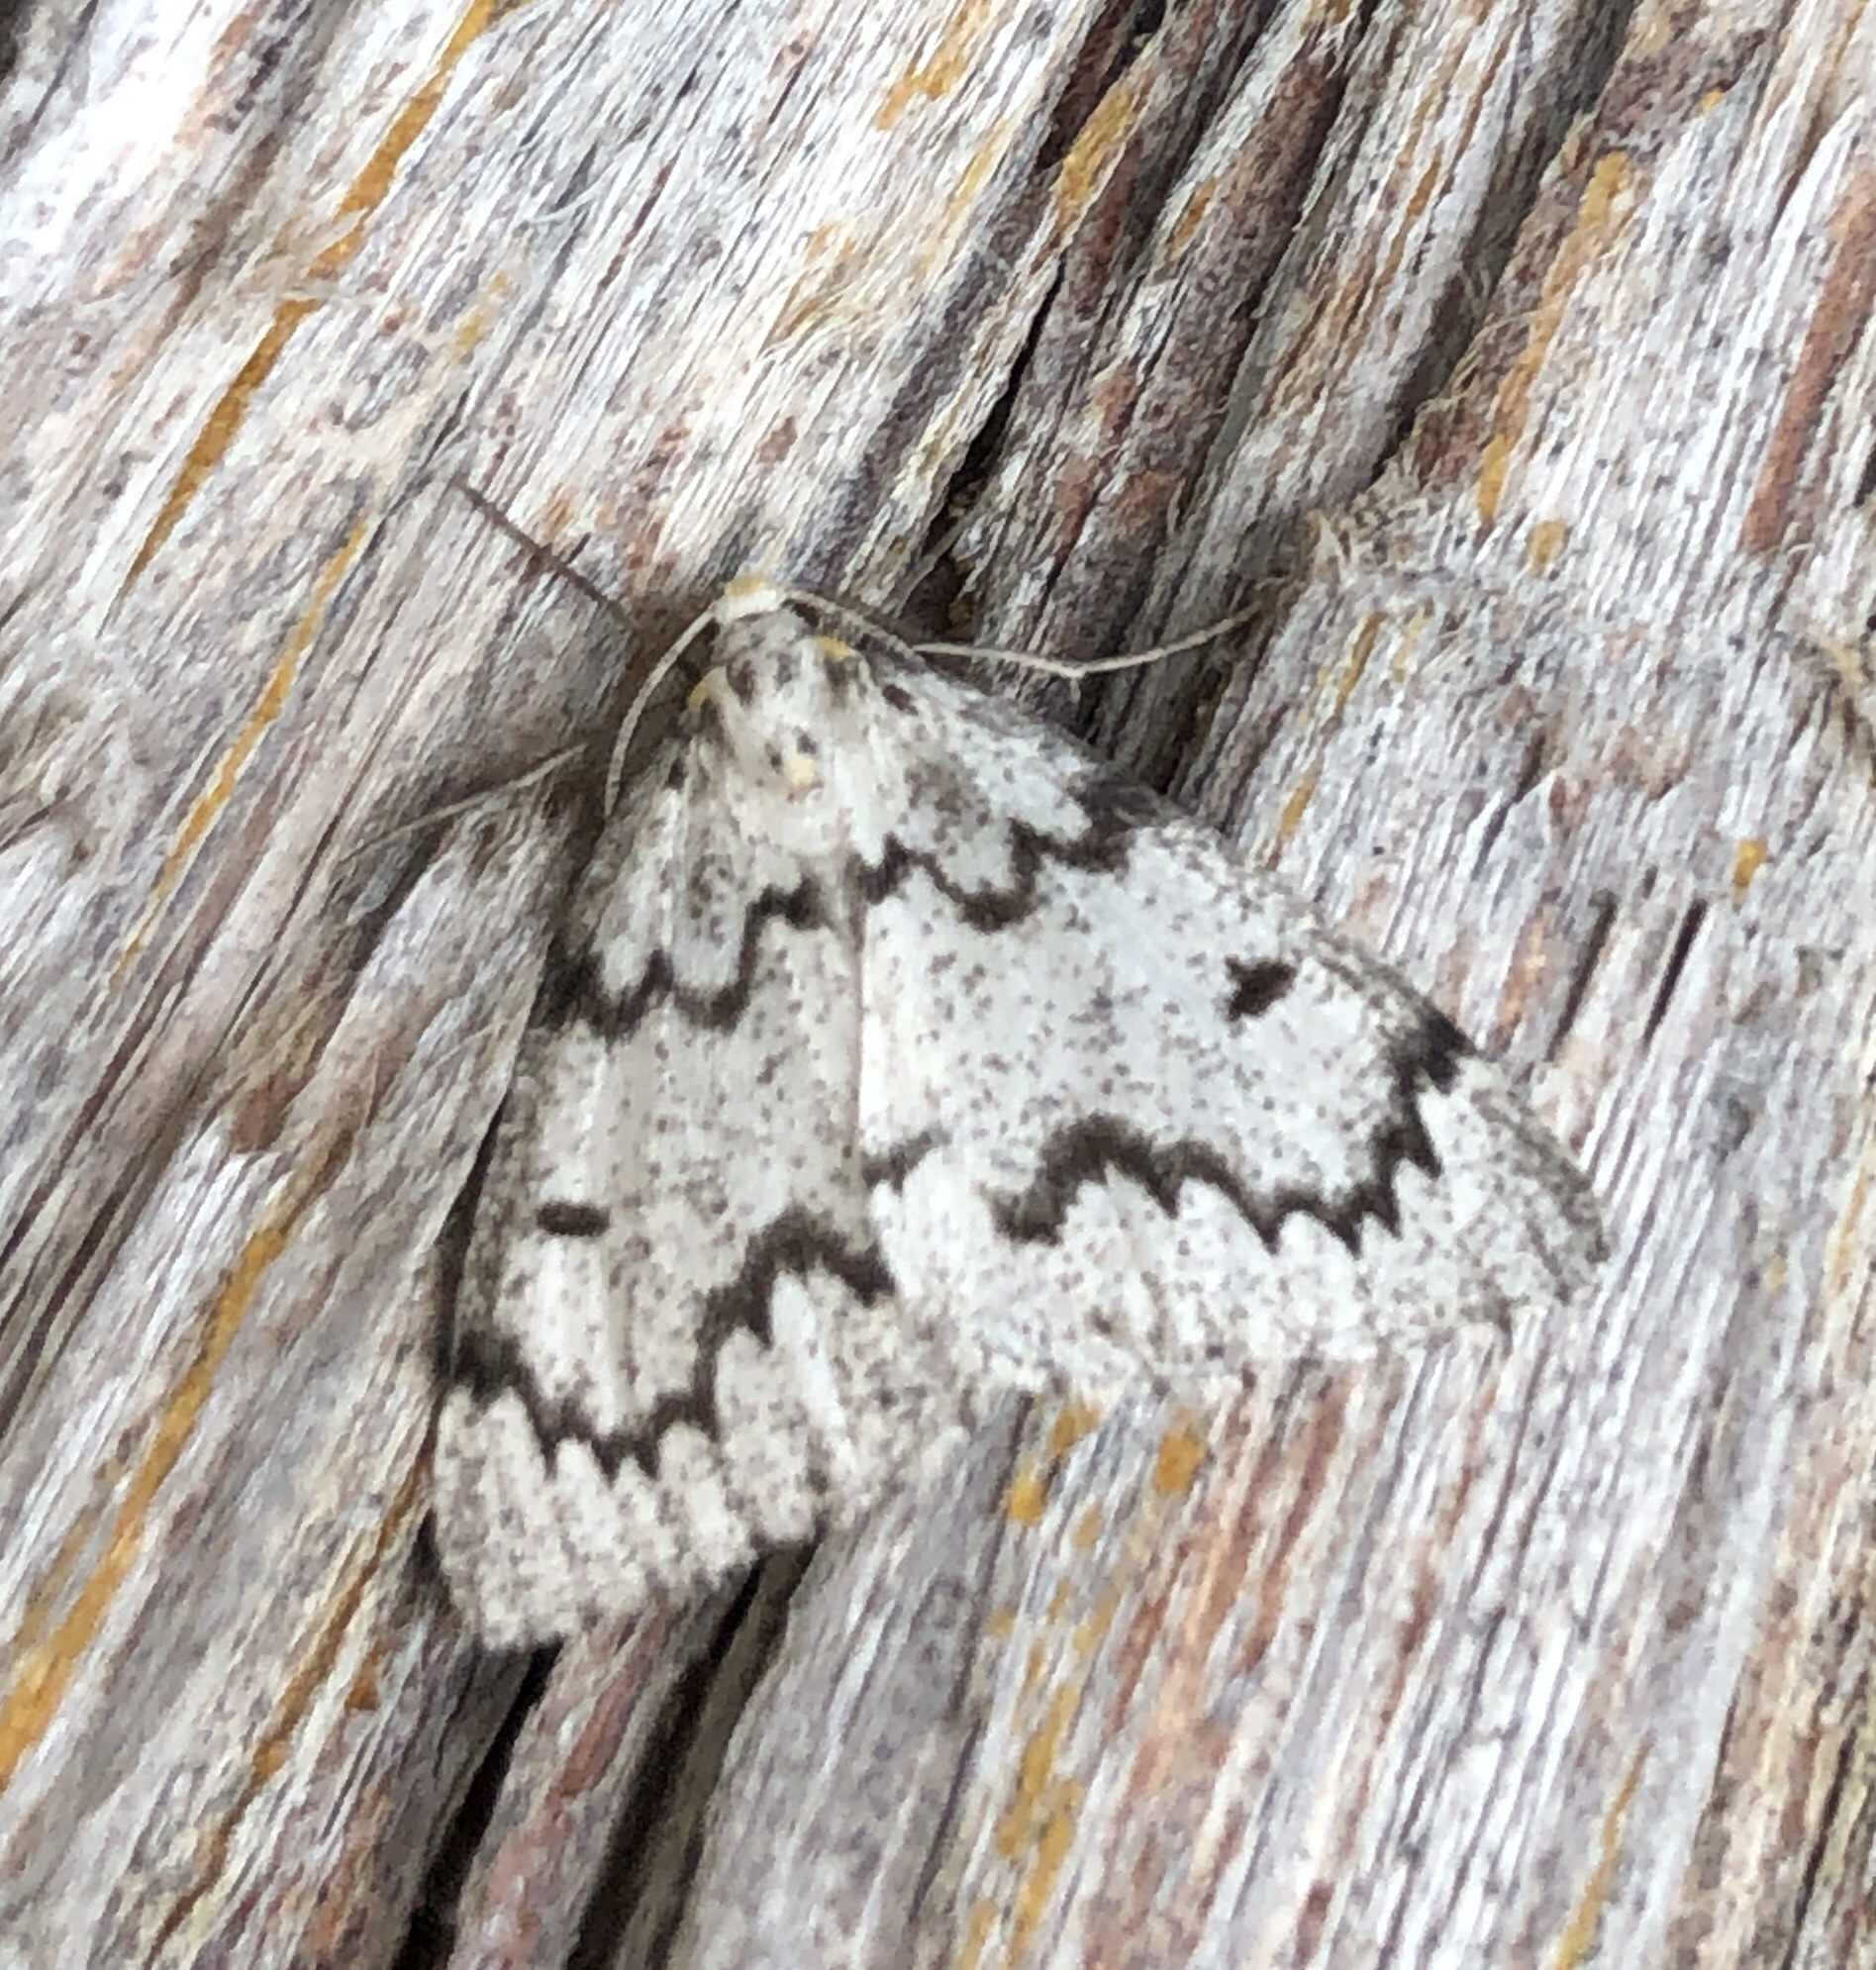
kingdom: Animalia
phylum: Arthropoda
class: Insecta
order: Lepidoptera
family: Geometridae
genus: Nepytia
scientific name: Nepytia canosaria
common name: False hemlock looper
